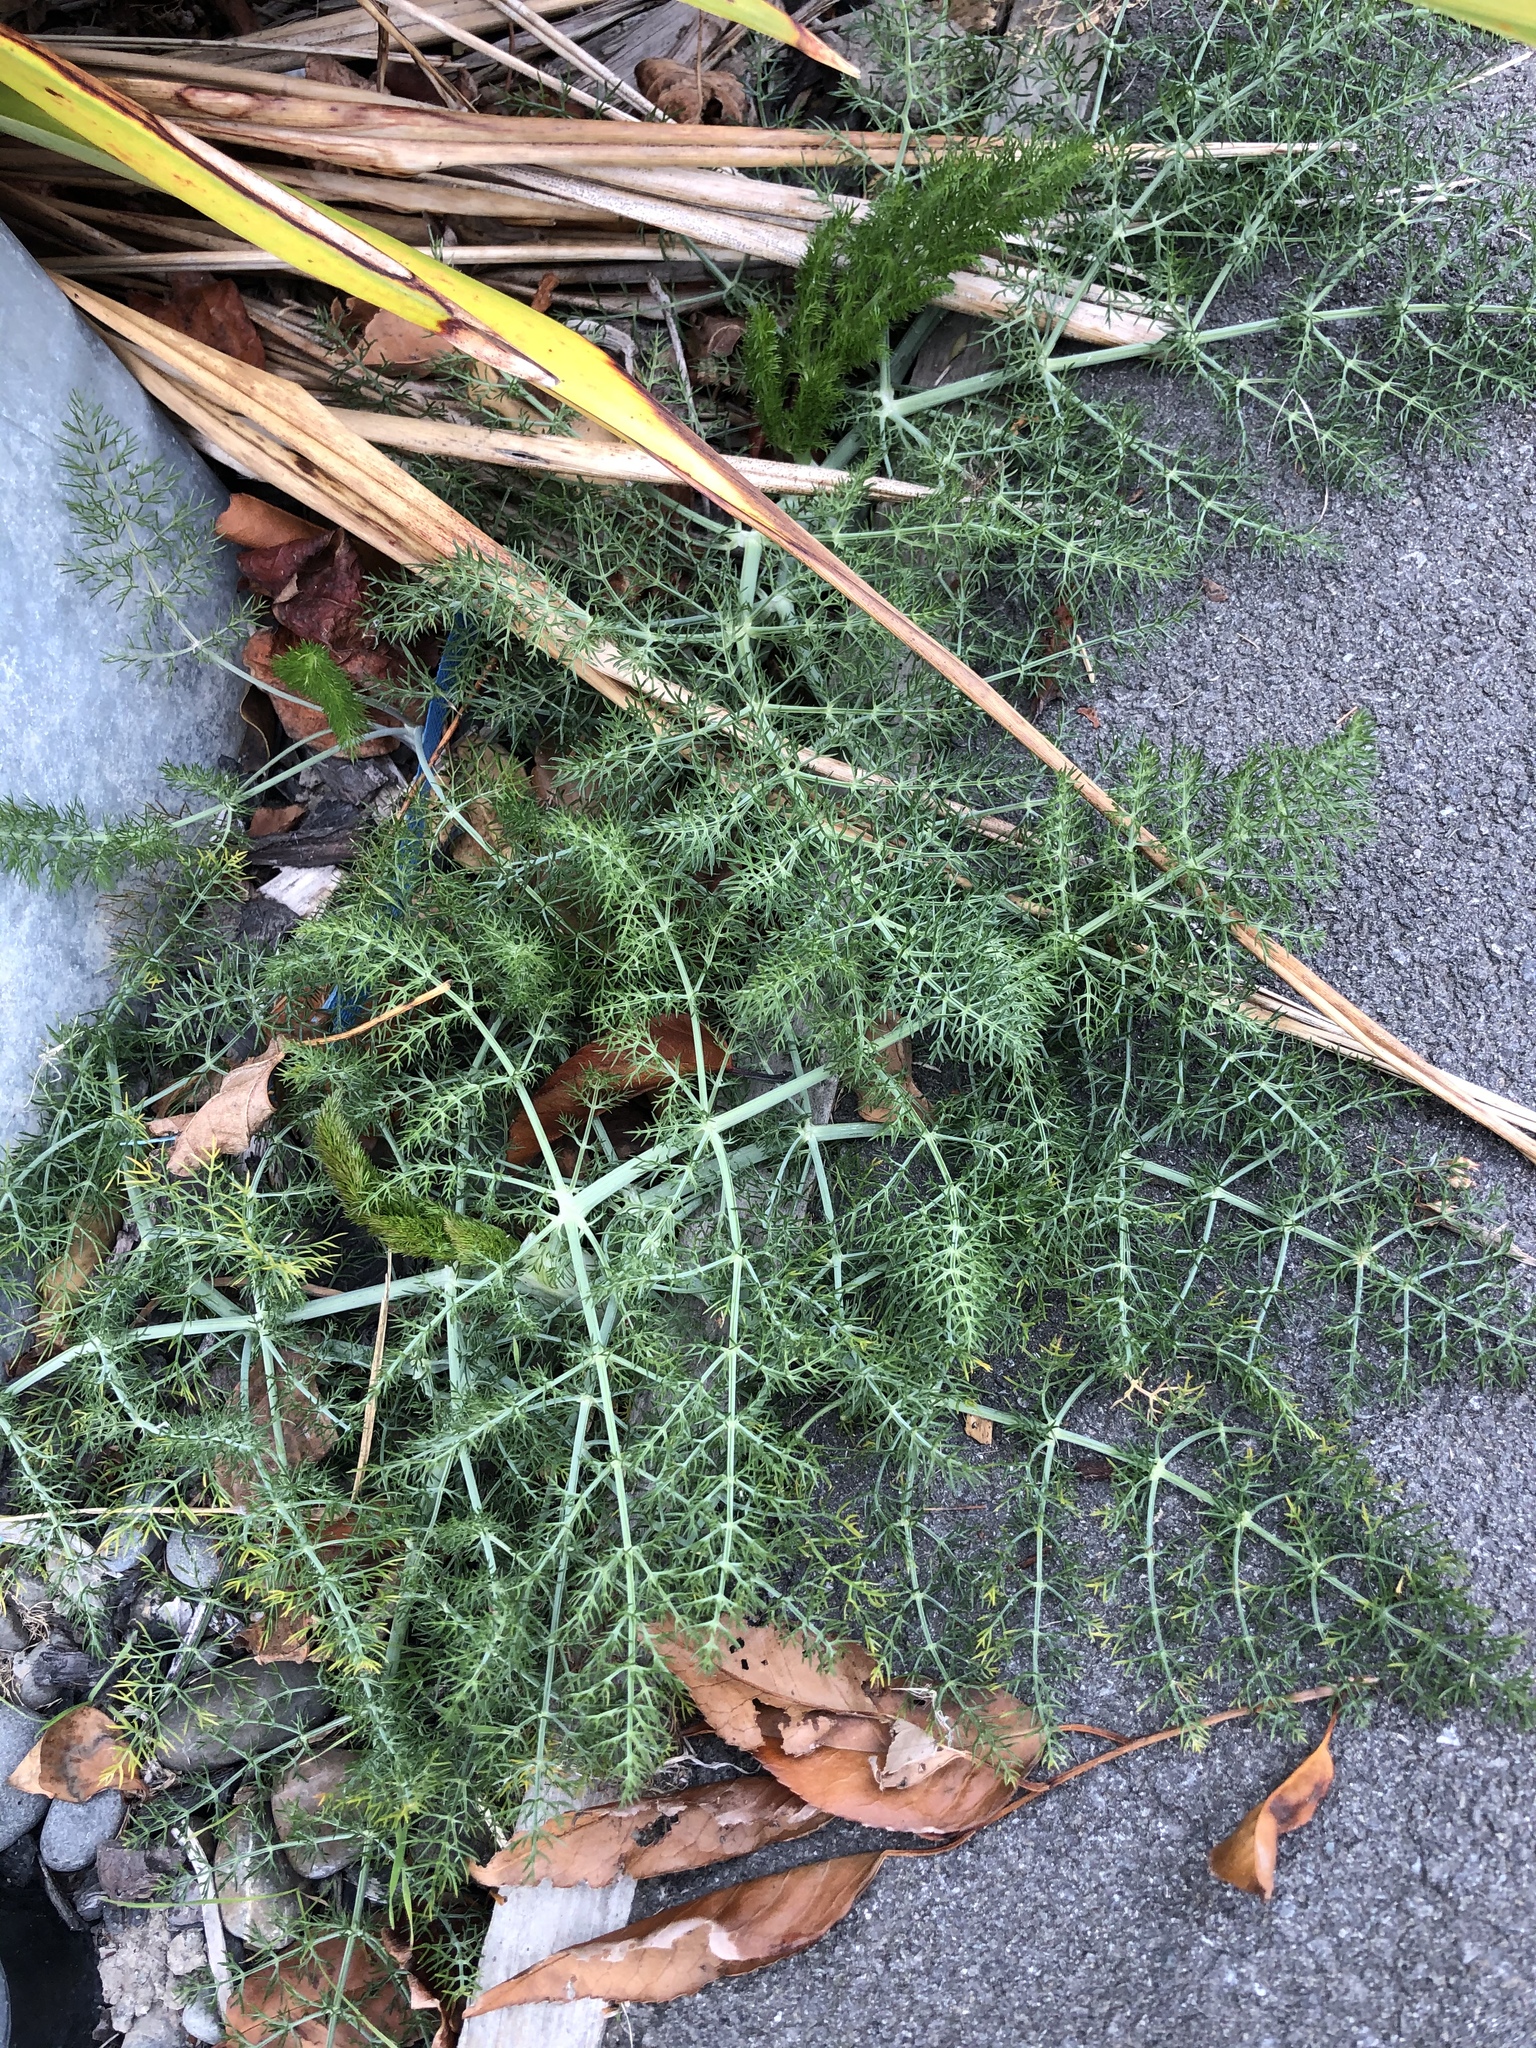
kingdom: Plantae
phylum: Tracheophyta
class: Magnoliopsida
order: Apiales
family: Apiaceae
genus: Foeniculum
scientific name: Foeniculum vulgare
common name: Fennel
